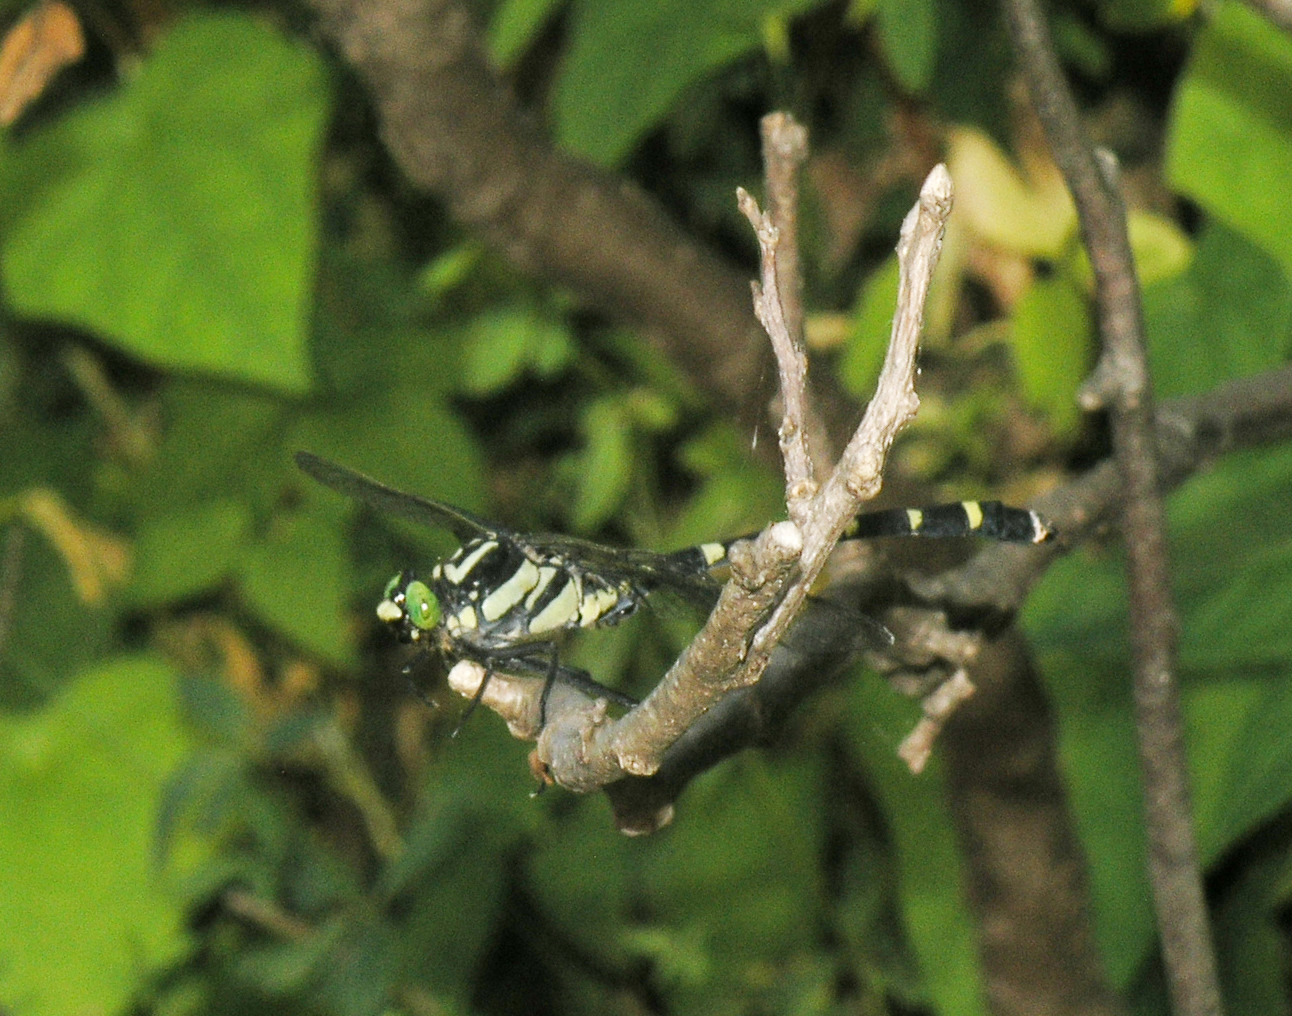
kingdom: Animalia
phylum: Arthropoda
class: Insecta
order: Odonata
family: Gomphidae
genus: Sieboldius
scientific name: Sieboldius albardae
